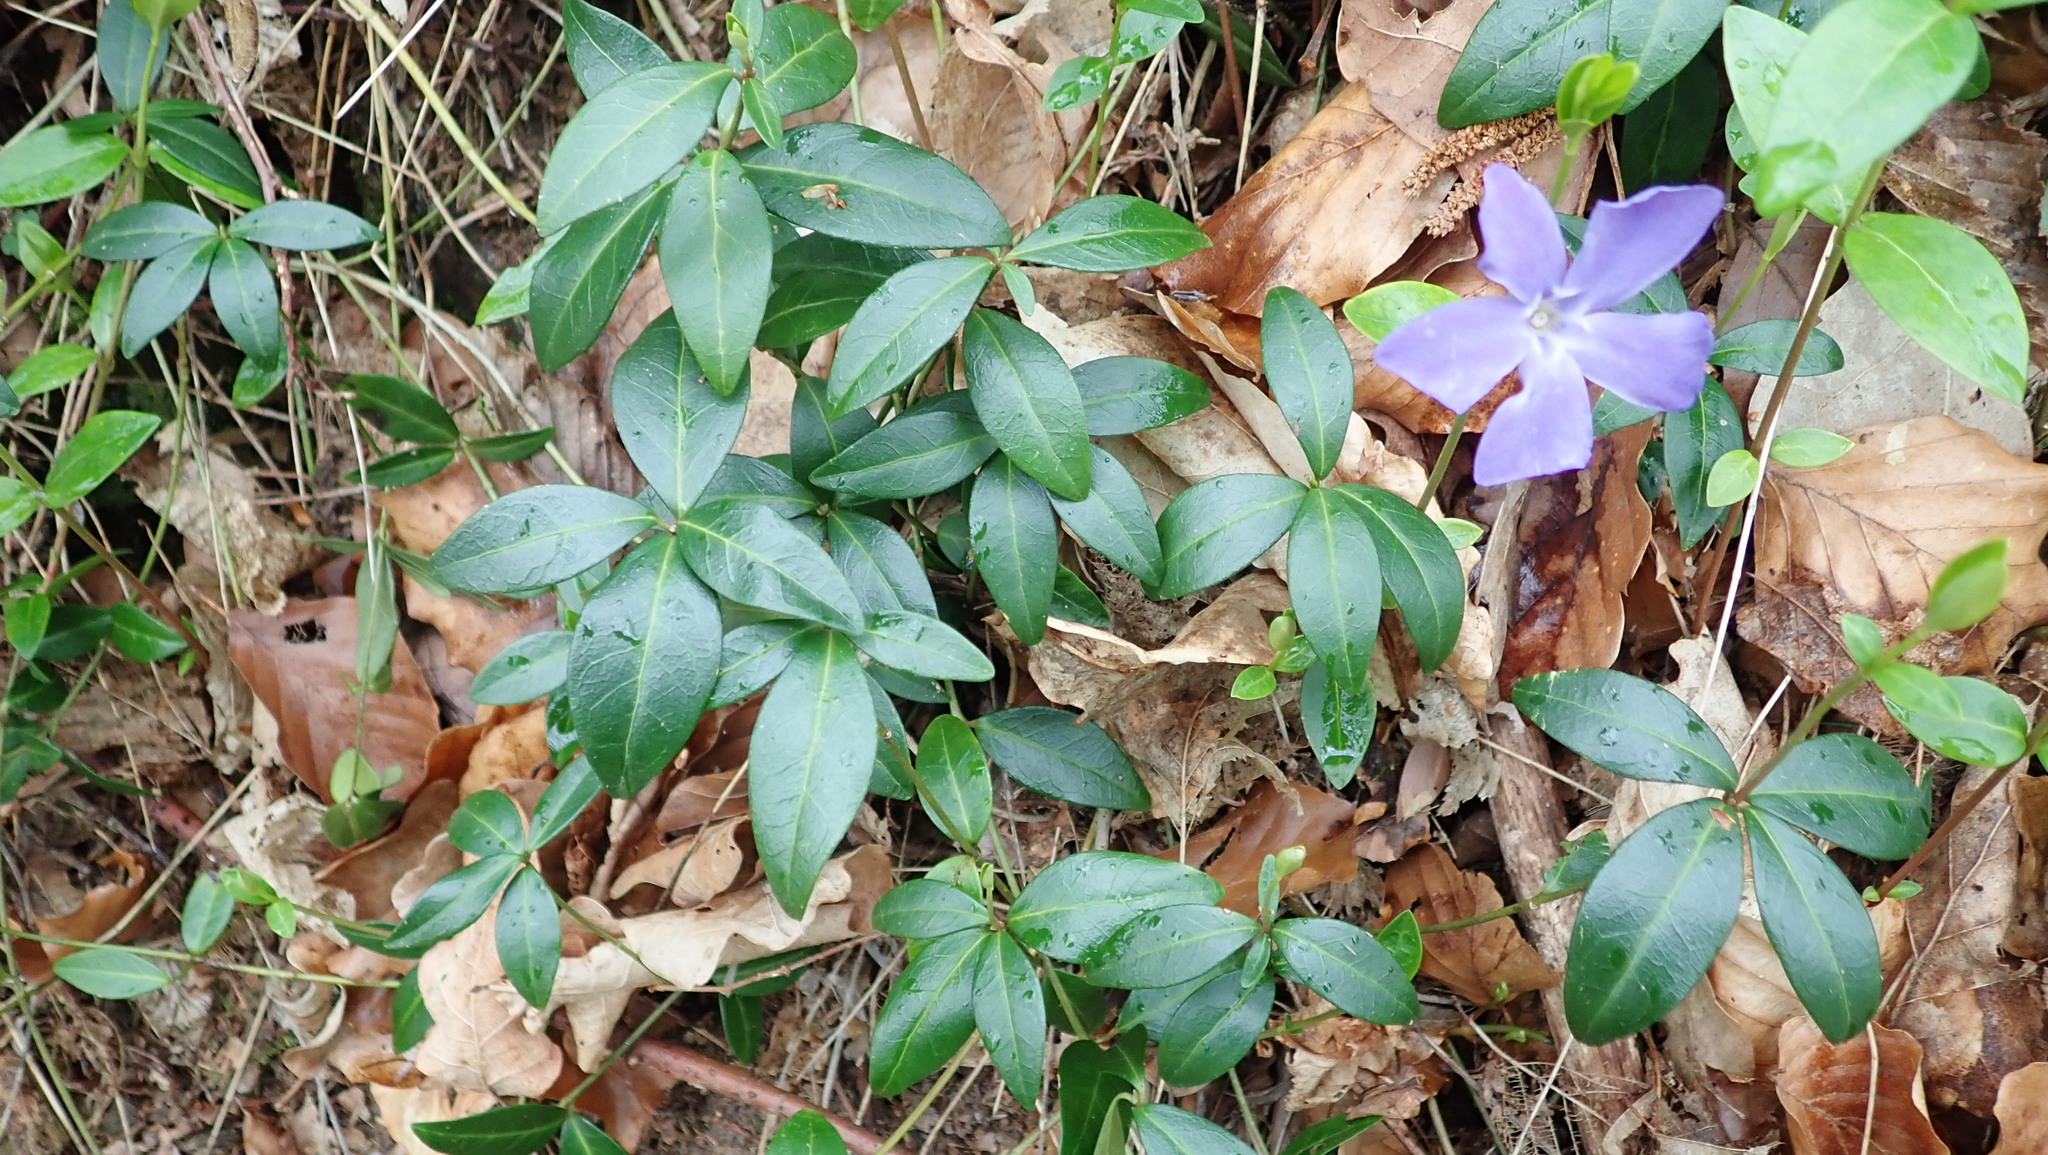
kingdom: Plantae
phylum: Tracheophyta
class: Magnoliopsida
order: Gentianales
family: Apocynaceae
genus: Vinca
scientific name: Vinca minor
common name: Lesser periwinkle
